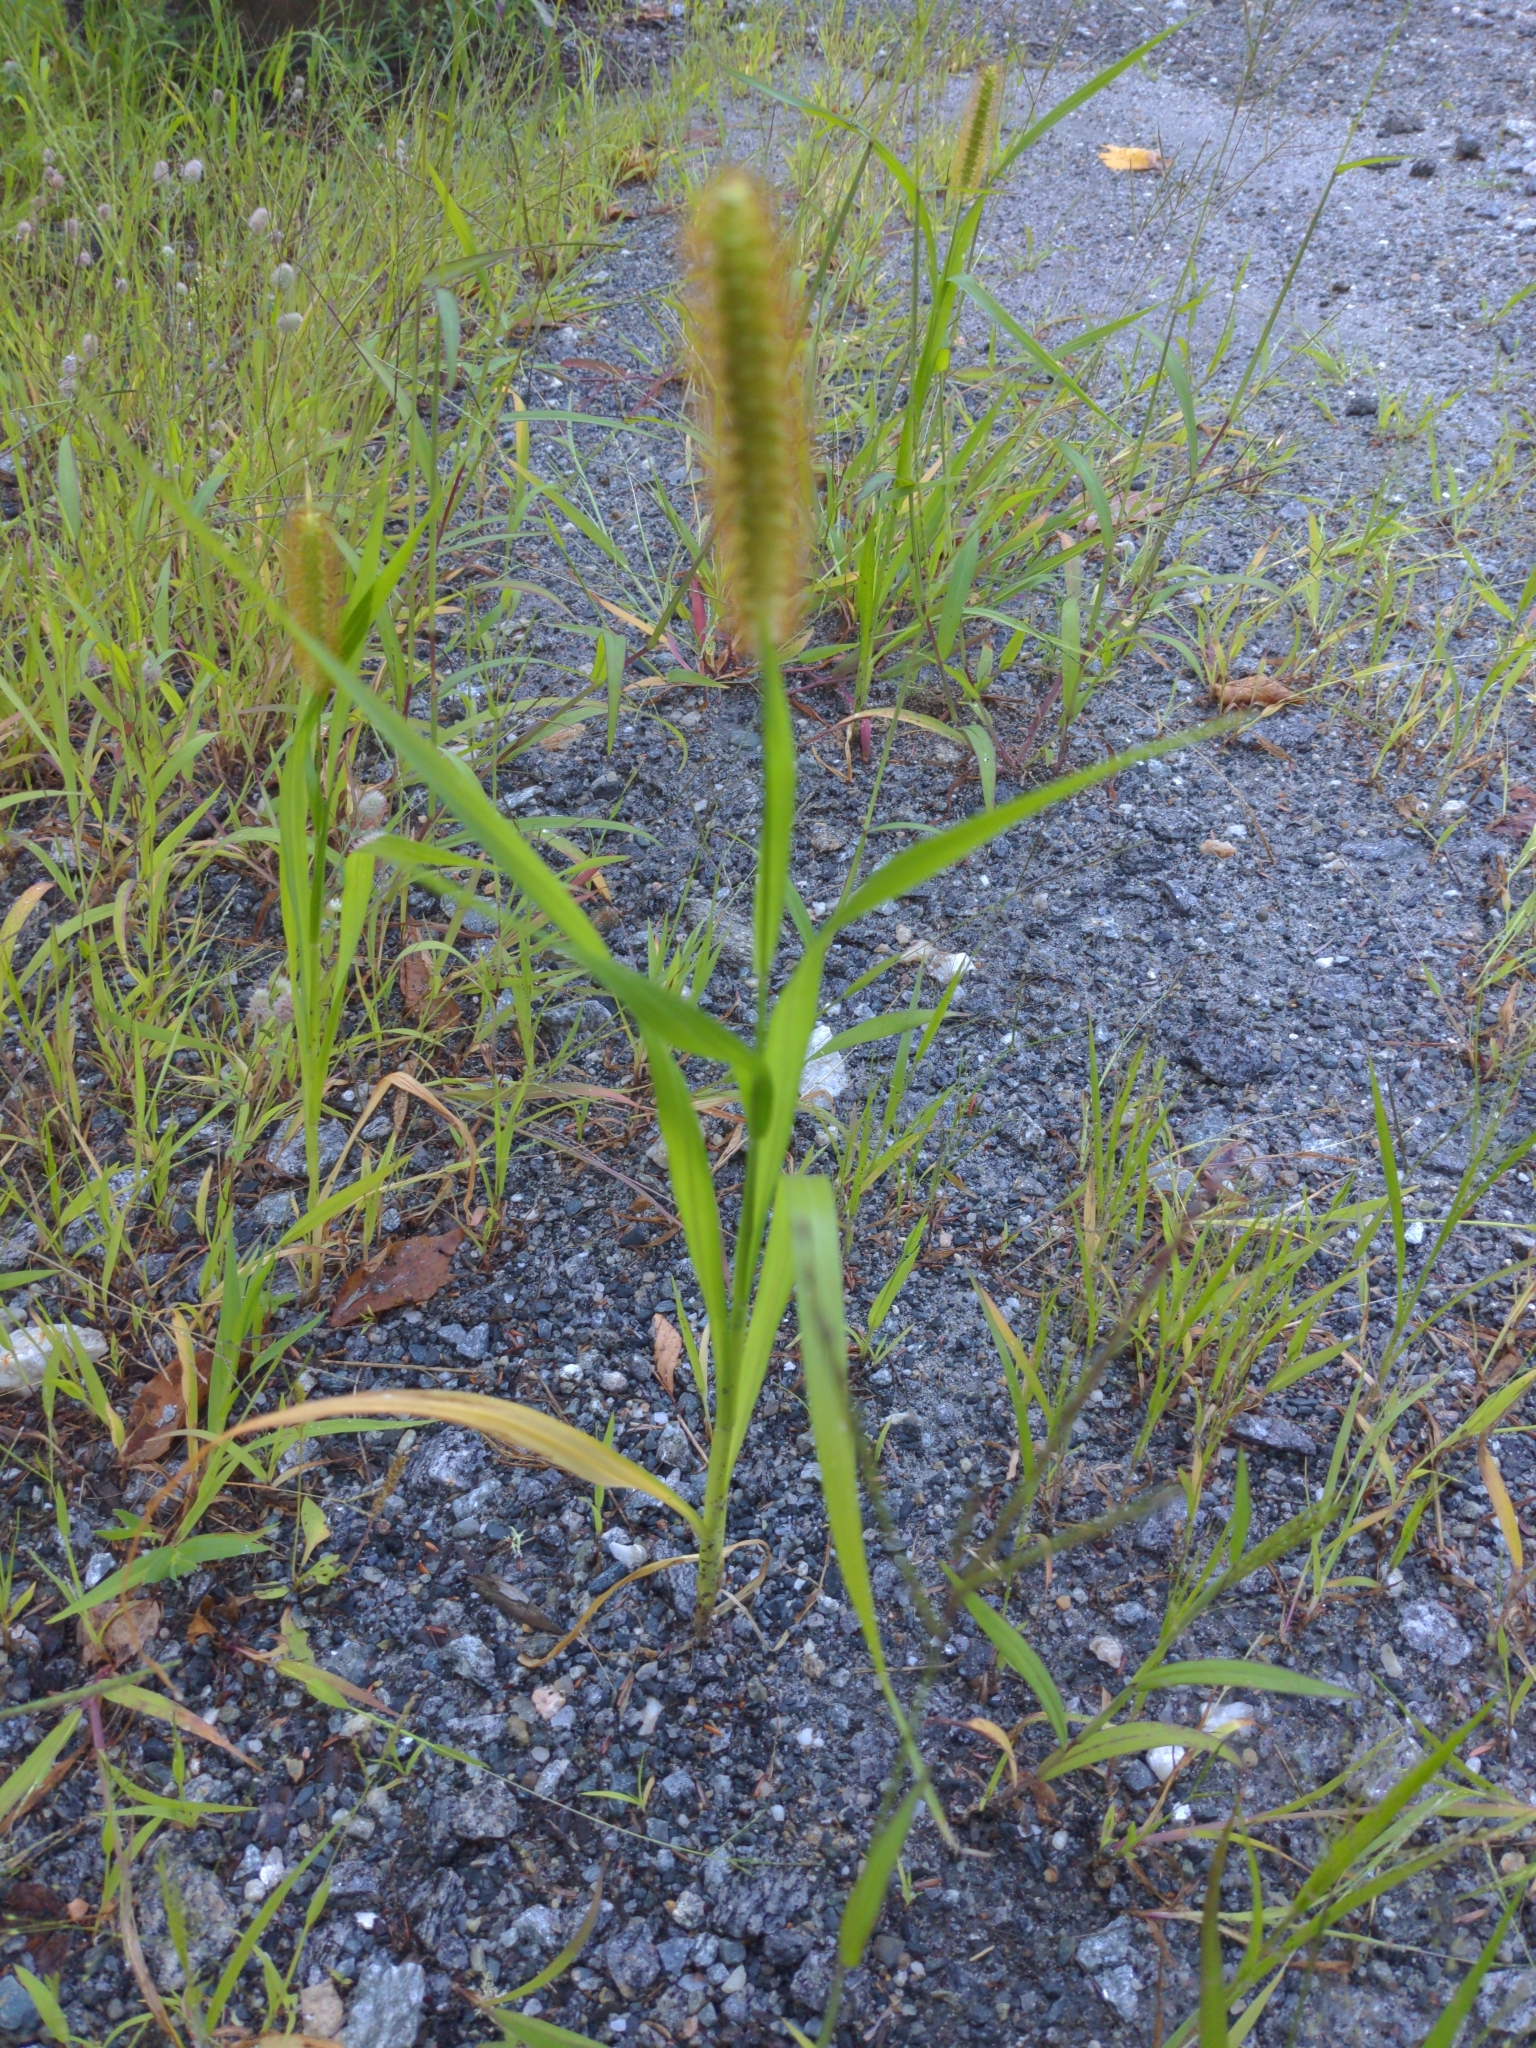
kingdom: Plantae
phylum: Tracheophyta
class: Liliopsida
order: Poales
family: Poaceae
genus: Setaria
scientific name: Setaria pumila
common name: Yellow bristle-grass
